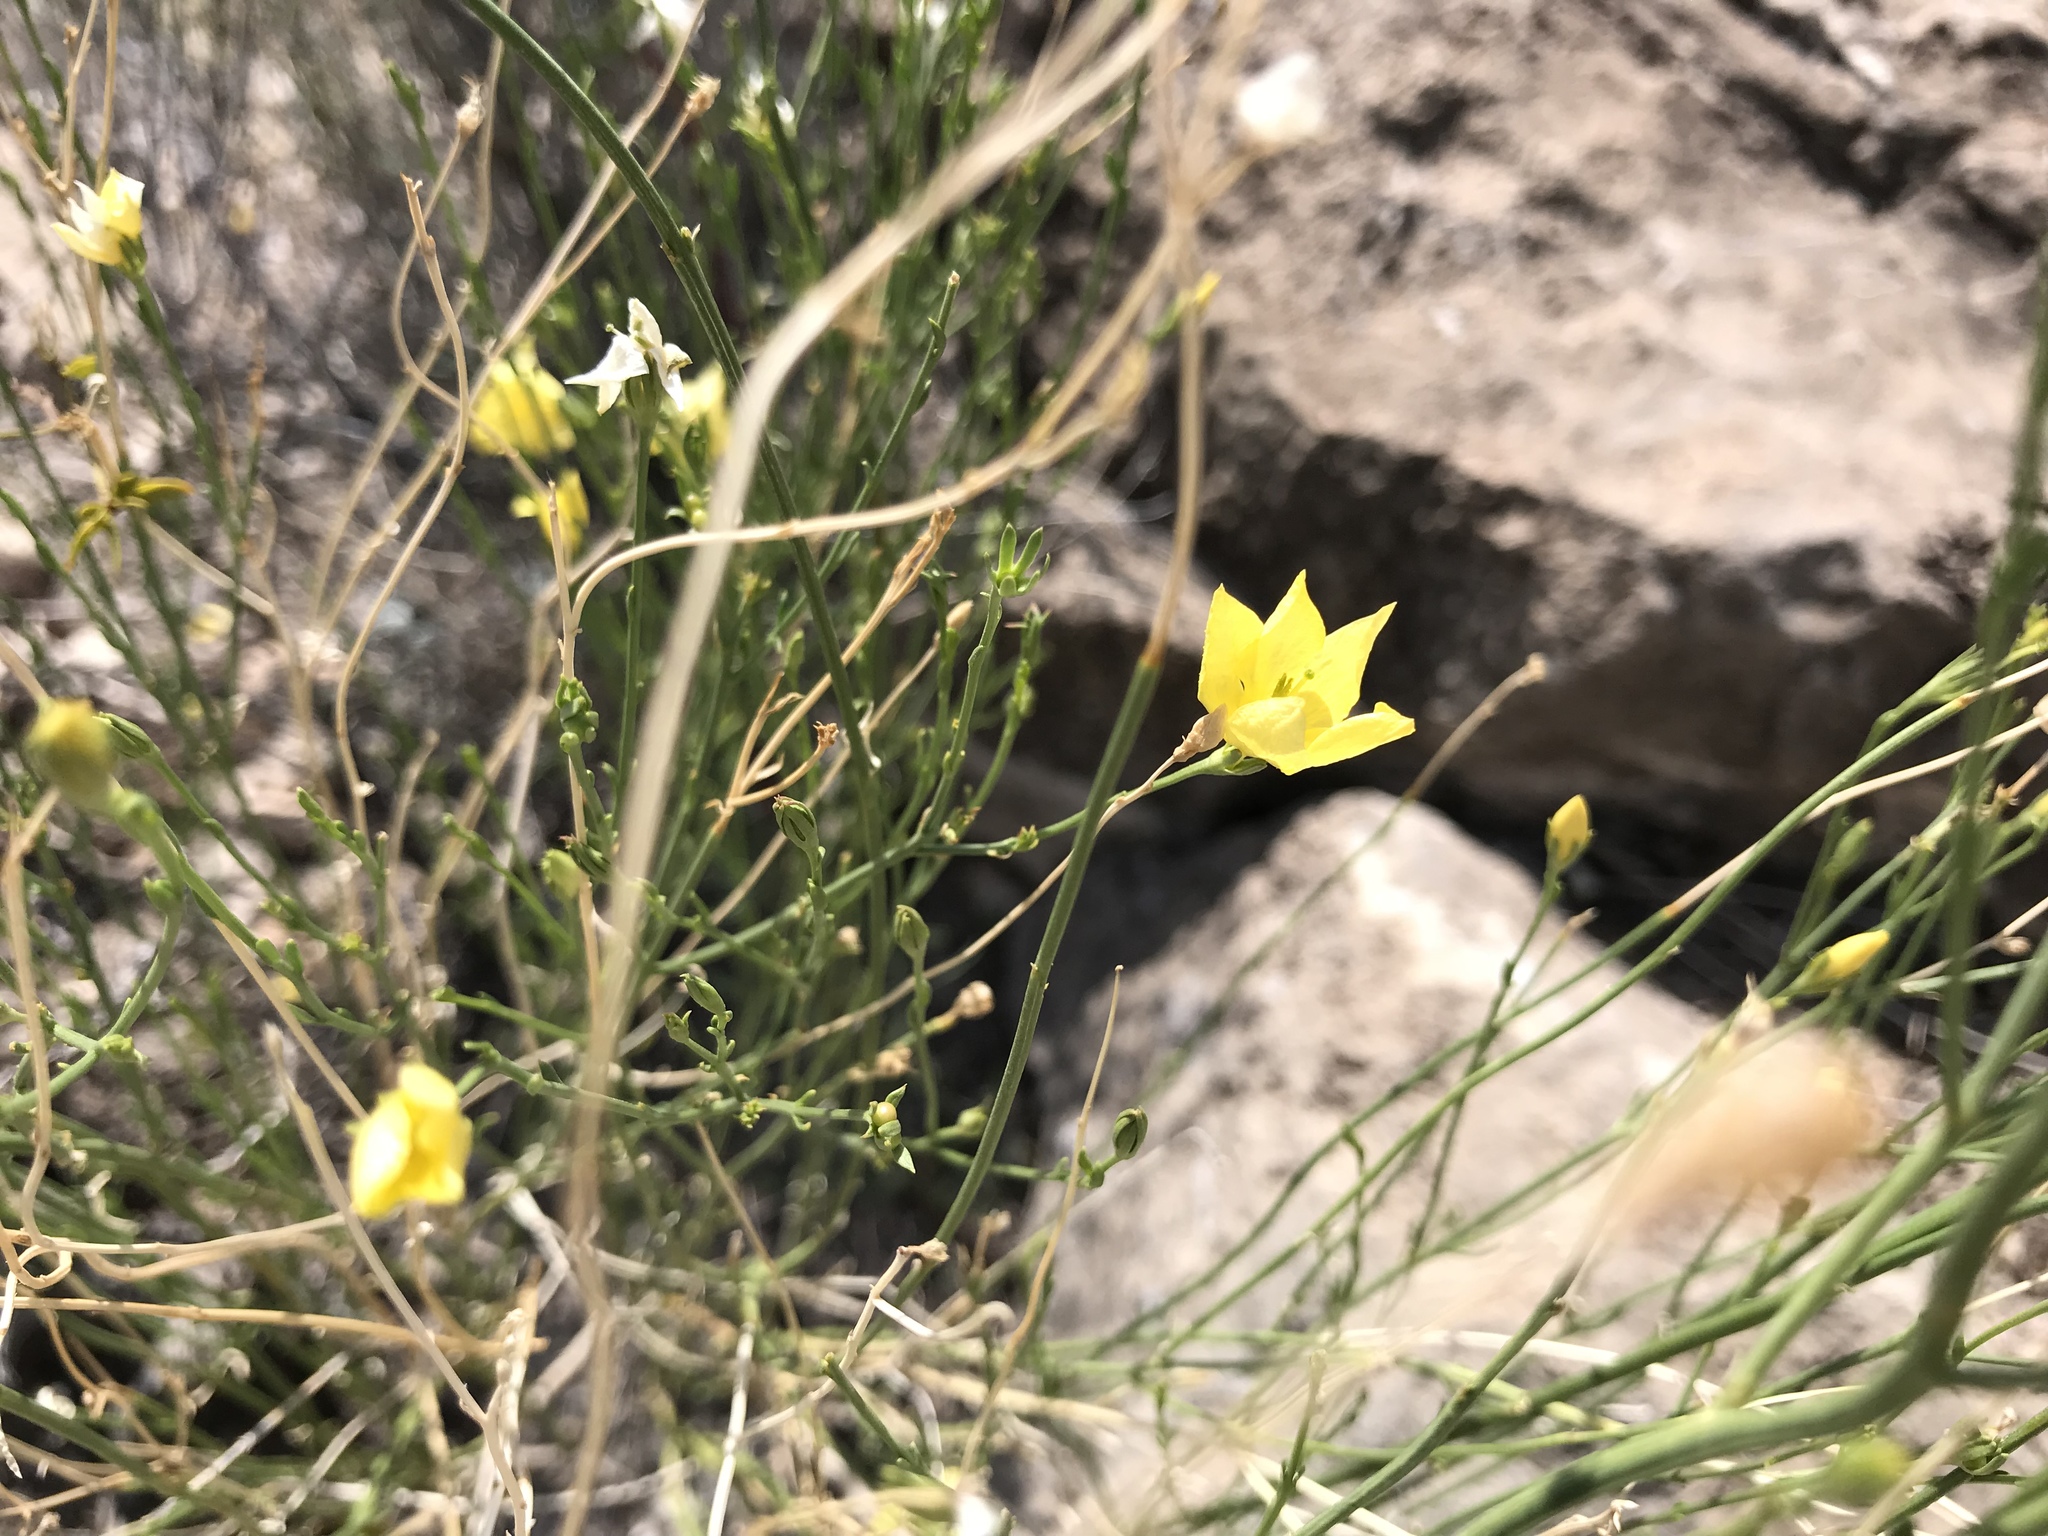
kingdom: Plantae
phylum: Tracheophyta
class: Magnoliopsida
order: Lamiales
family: Oleaceae
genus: Menodora
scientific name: Menodora scabra
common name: Rough menodora
